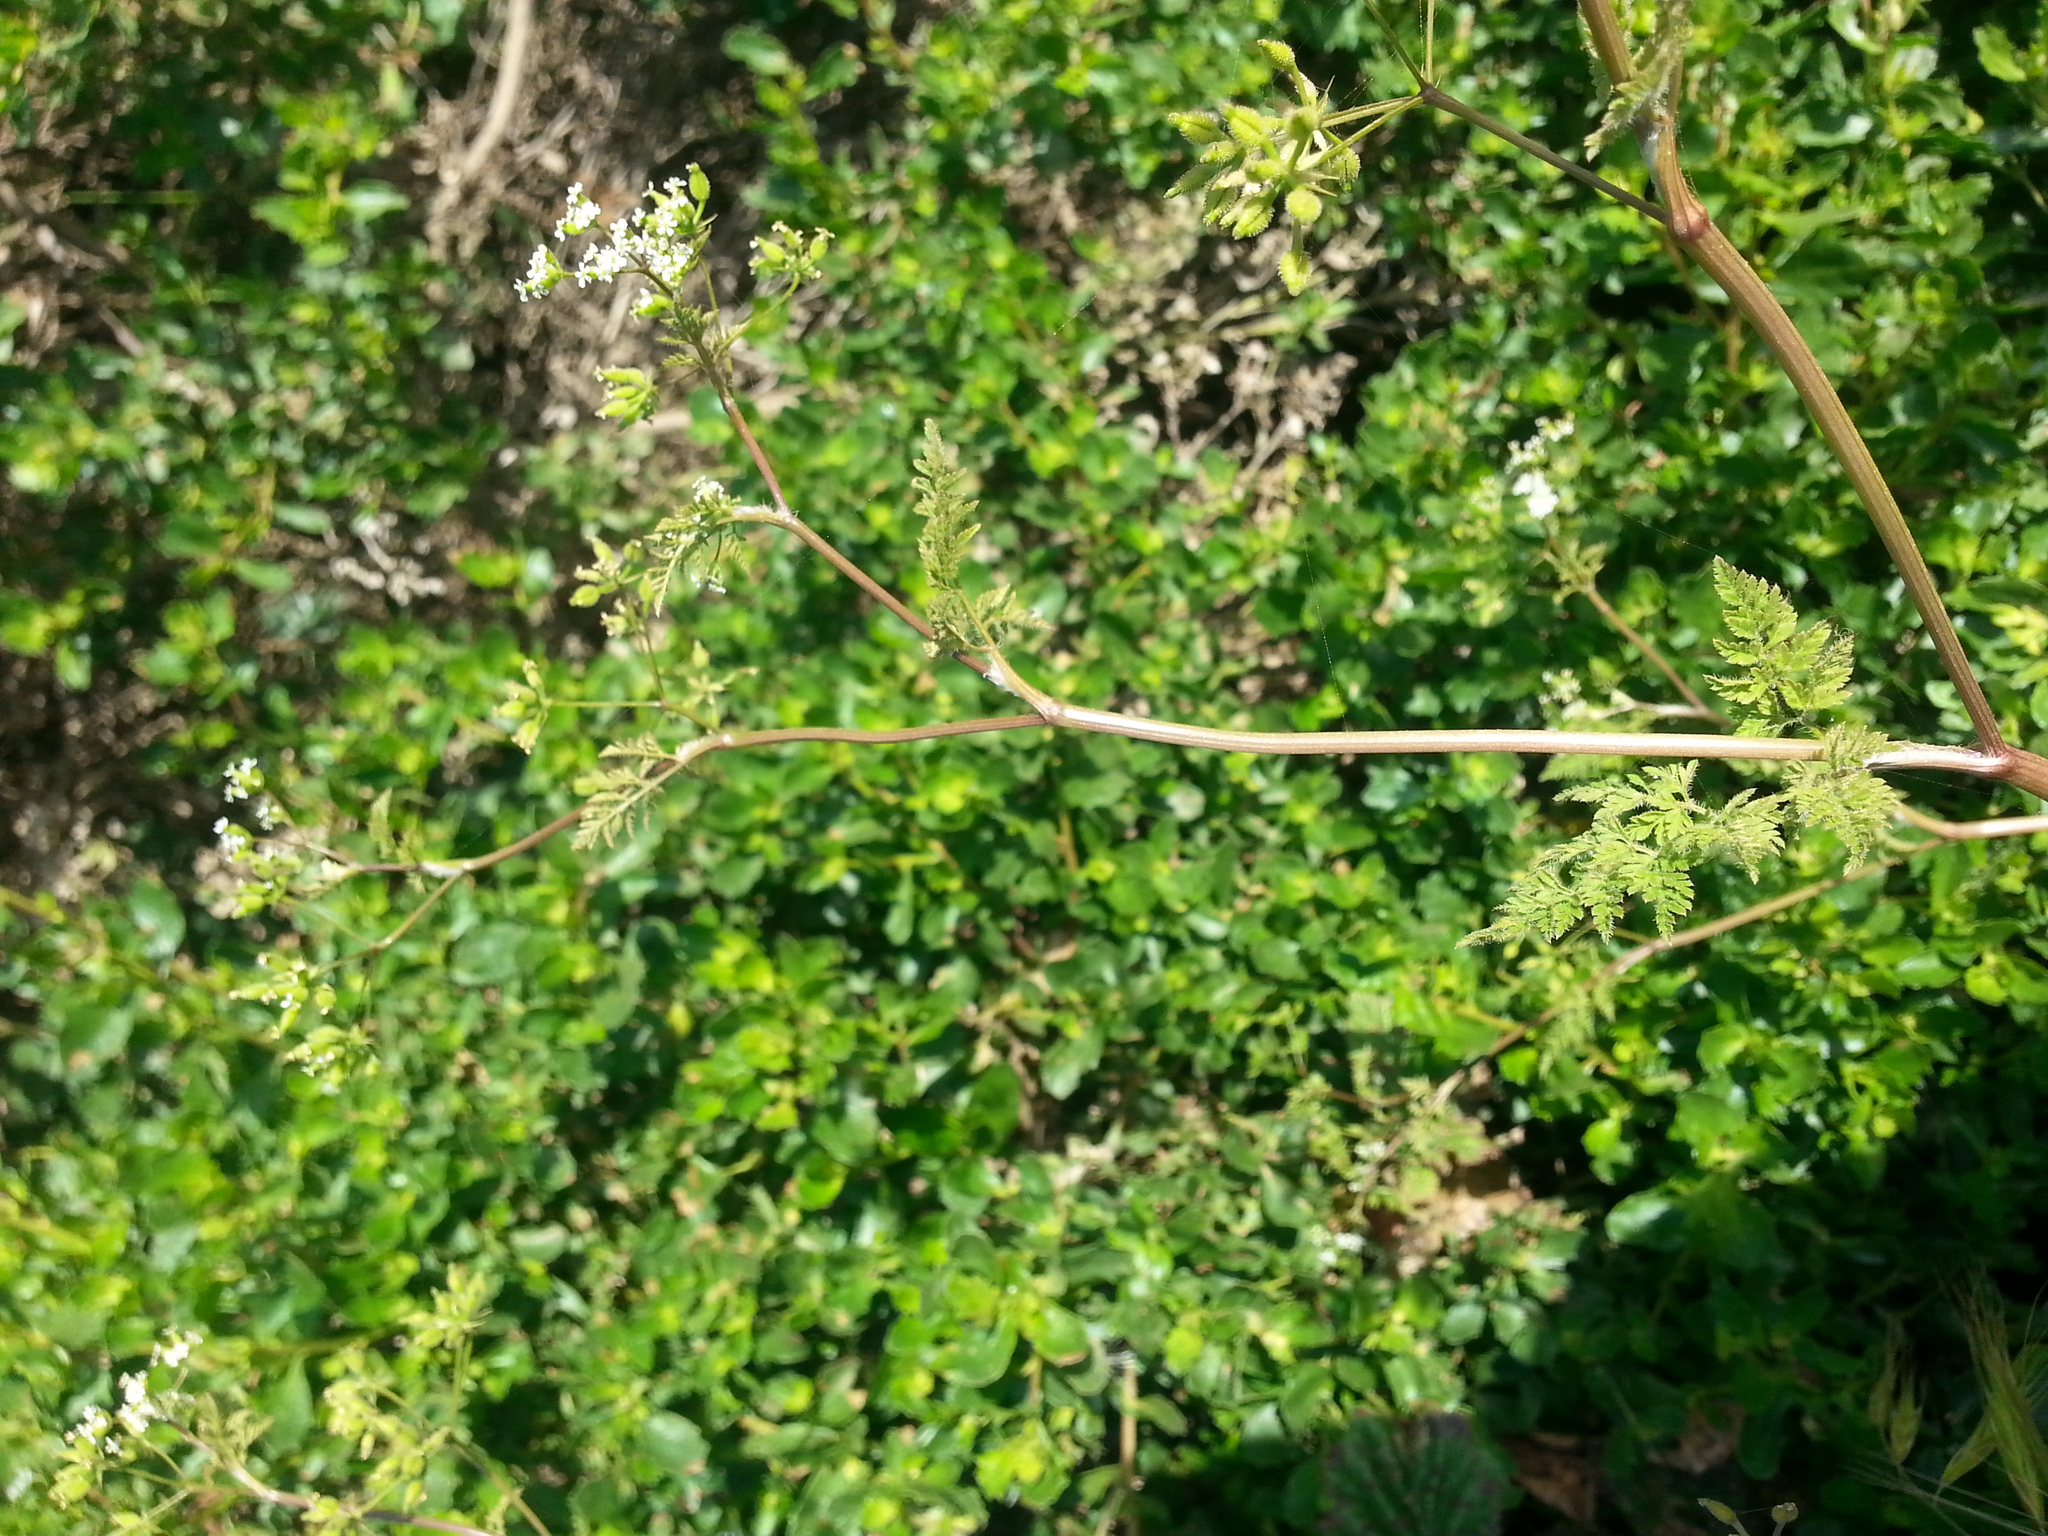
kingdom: Plantae
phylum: Tracheophyta
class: Magnoliopsida
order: Apiales
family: Apiaceae
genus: Anthriscus
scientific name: Anthriscus caucalis
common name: Bur chervil
